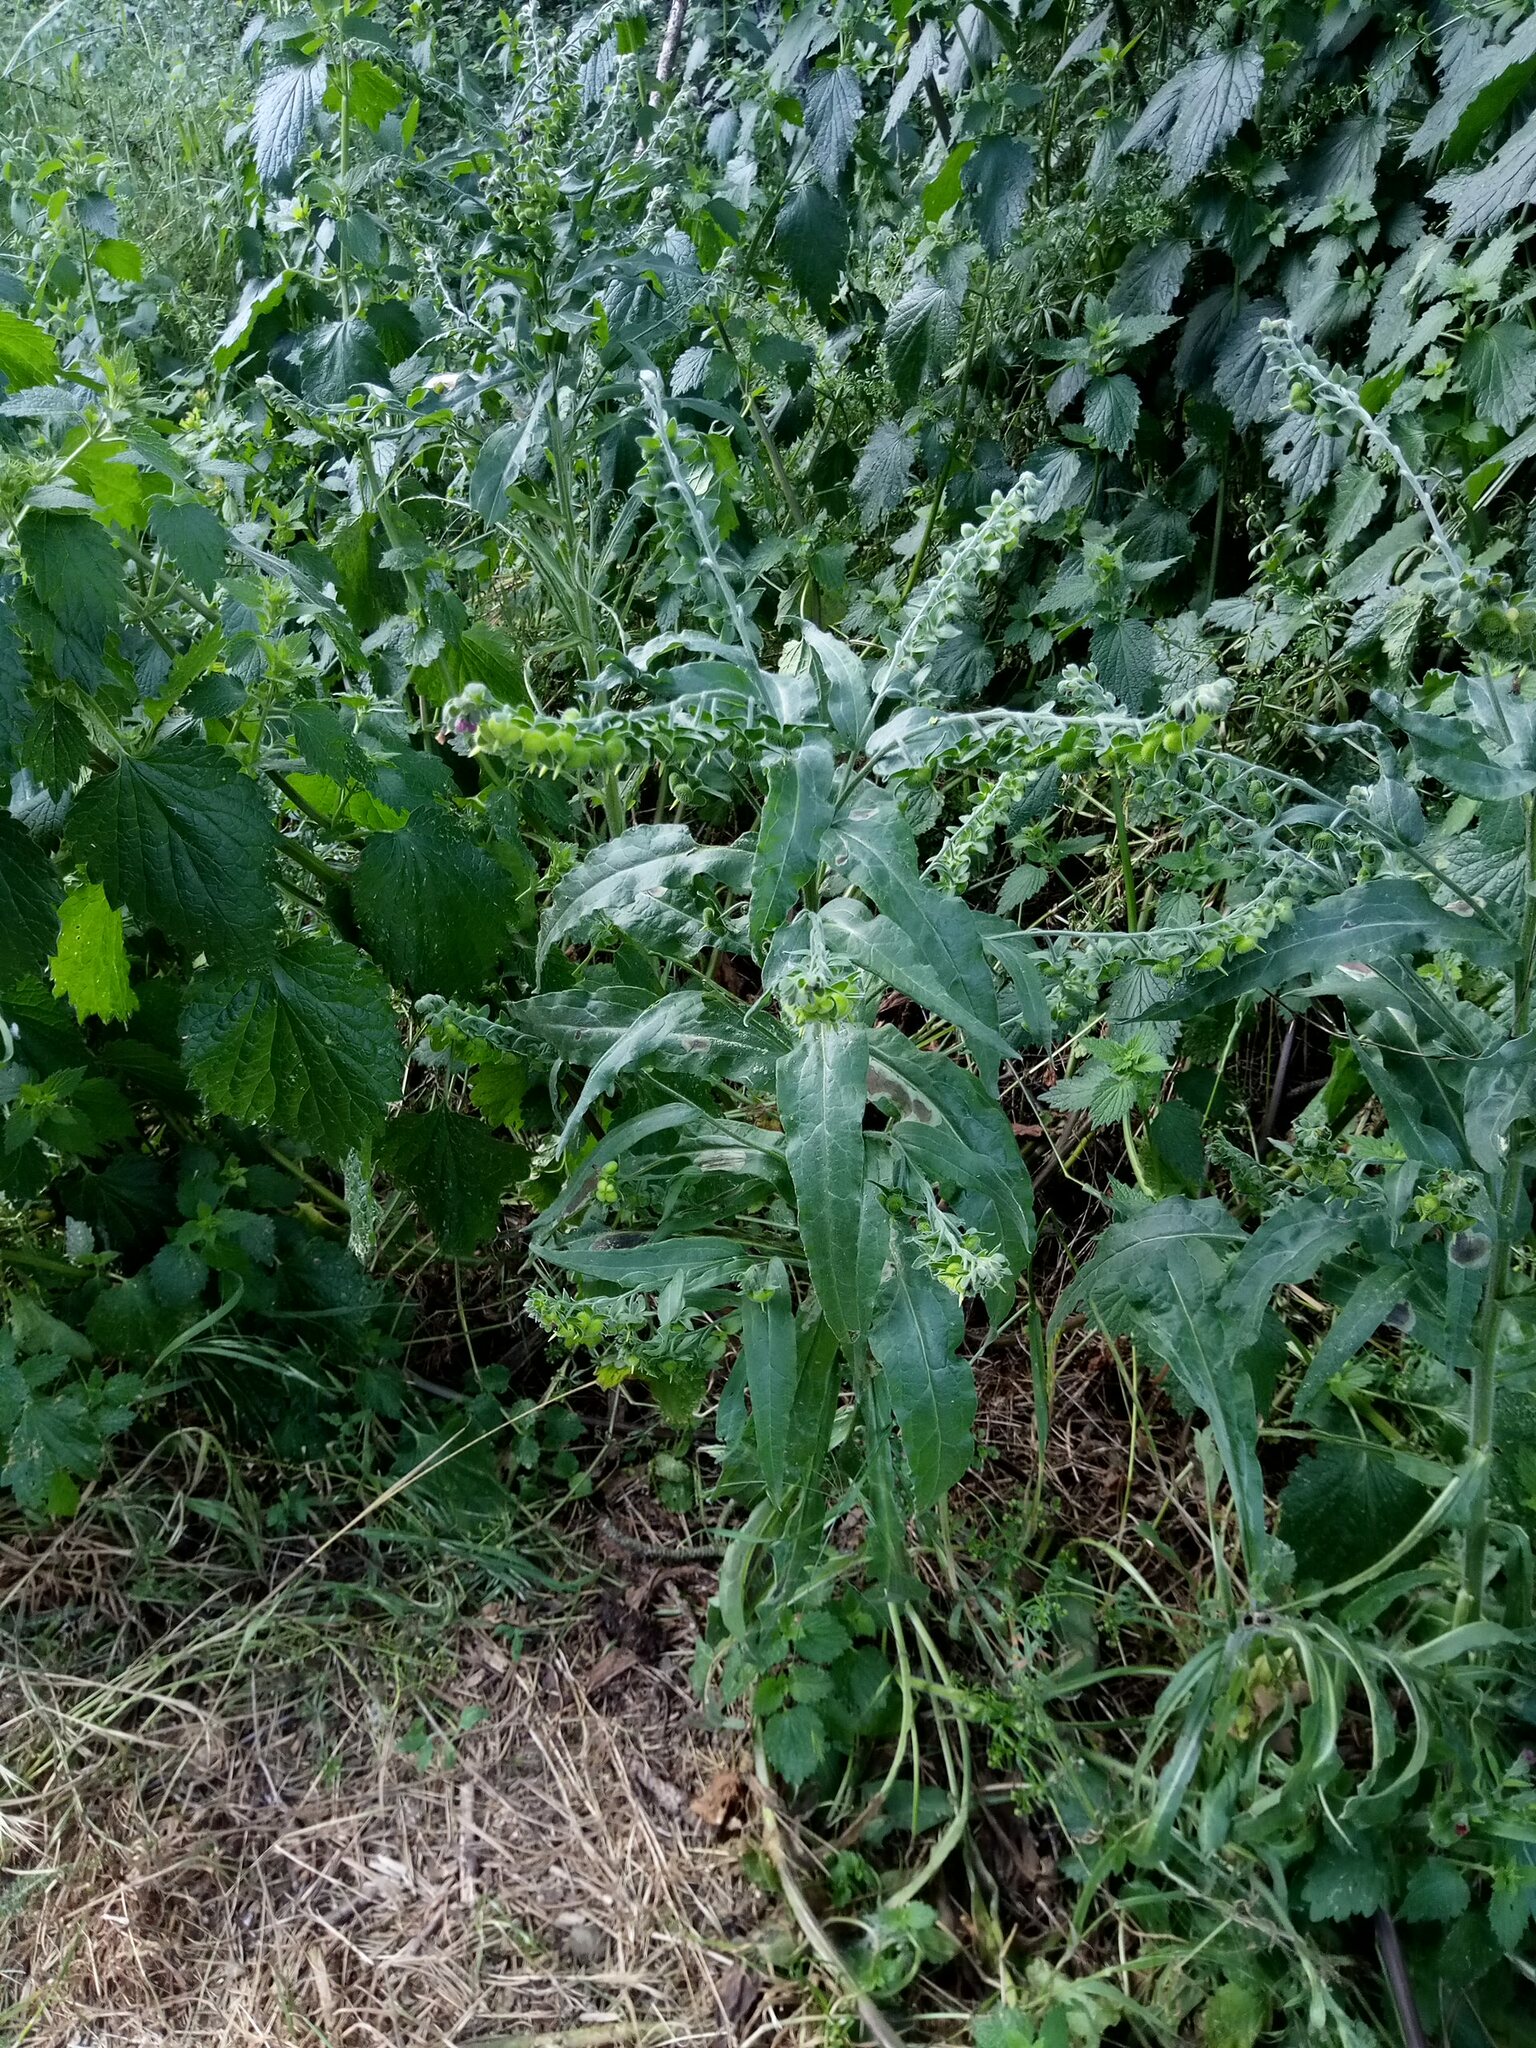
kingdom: Plantae
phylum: Tracheophyta
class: Magnoliopsida
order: Boraginales
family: Boraginaceae
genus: Cynoglossum
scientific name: Cynoglossum officinale
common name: Hound's-tongue
